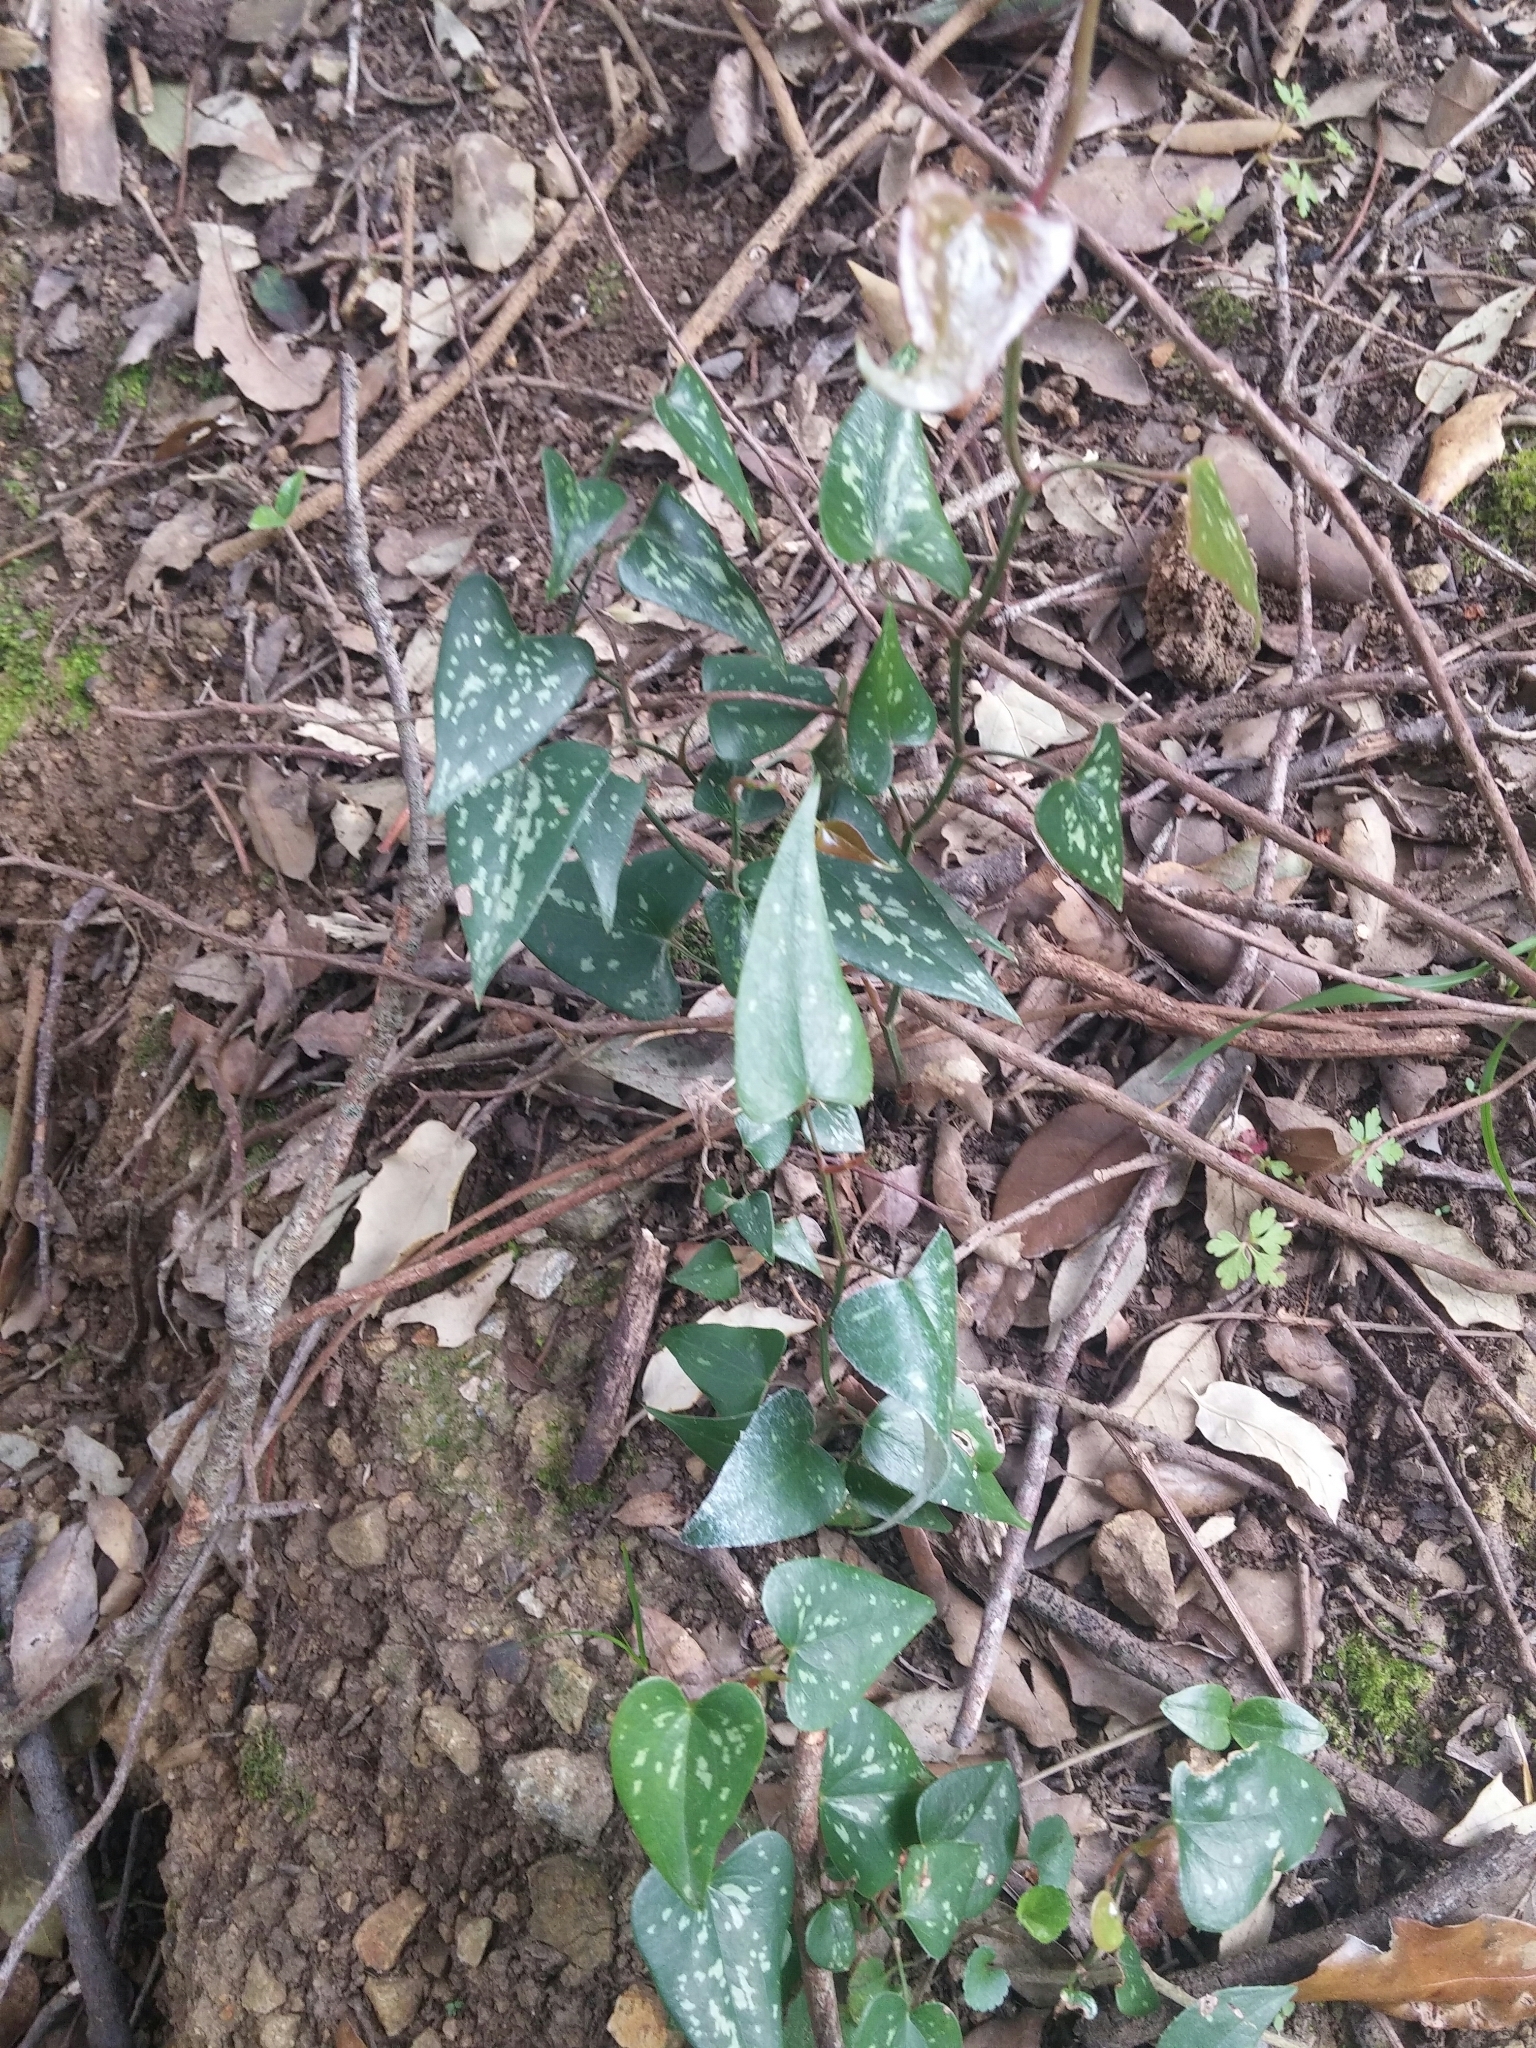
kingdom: Plantae
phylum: Tracheophyta
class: Liliopsida
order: Liliales
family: Smilacaceae
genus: Smilax
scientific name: Smilax aspera
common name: Common smilax
